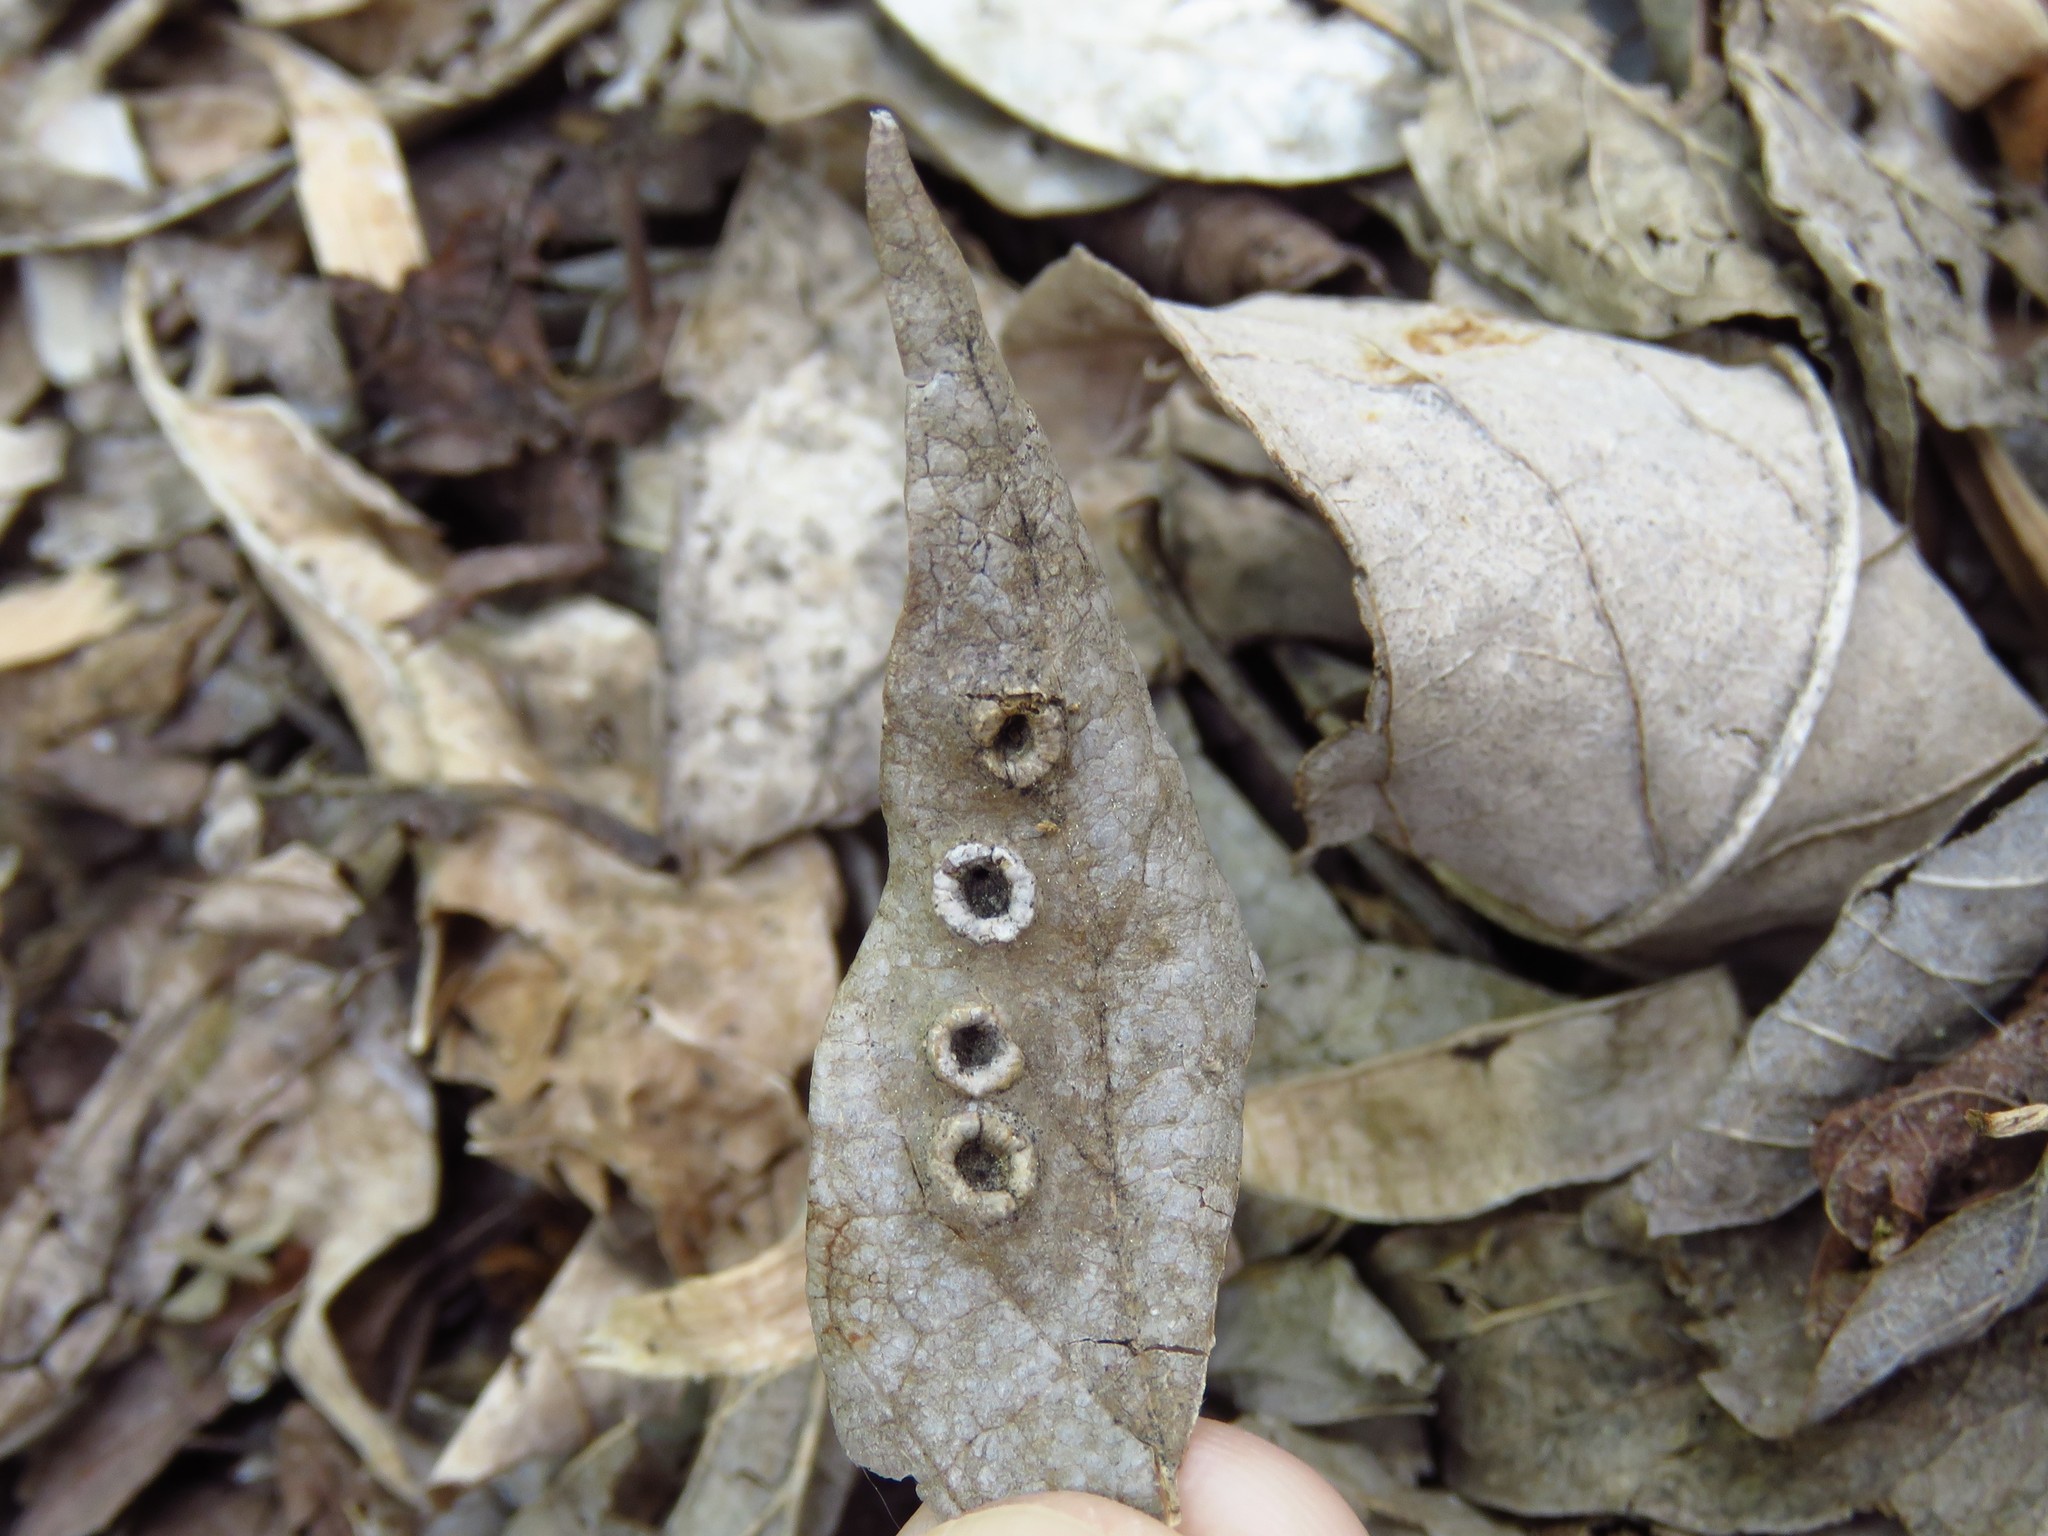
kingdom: Animalia
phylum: Arthropoda
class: Insecta
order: Hemiptera
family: Aphalaridae
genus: Pachypsylla
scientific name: Pachypsylla celtidismamma
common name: Hackberry nipplegall psyllid
